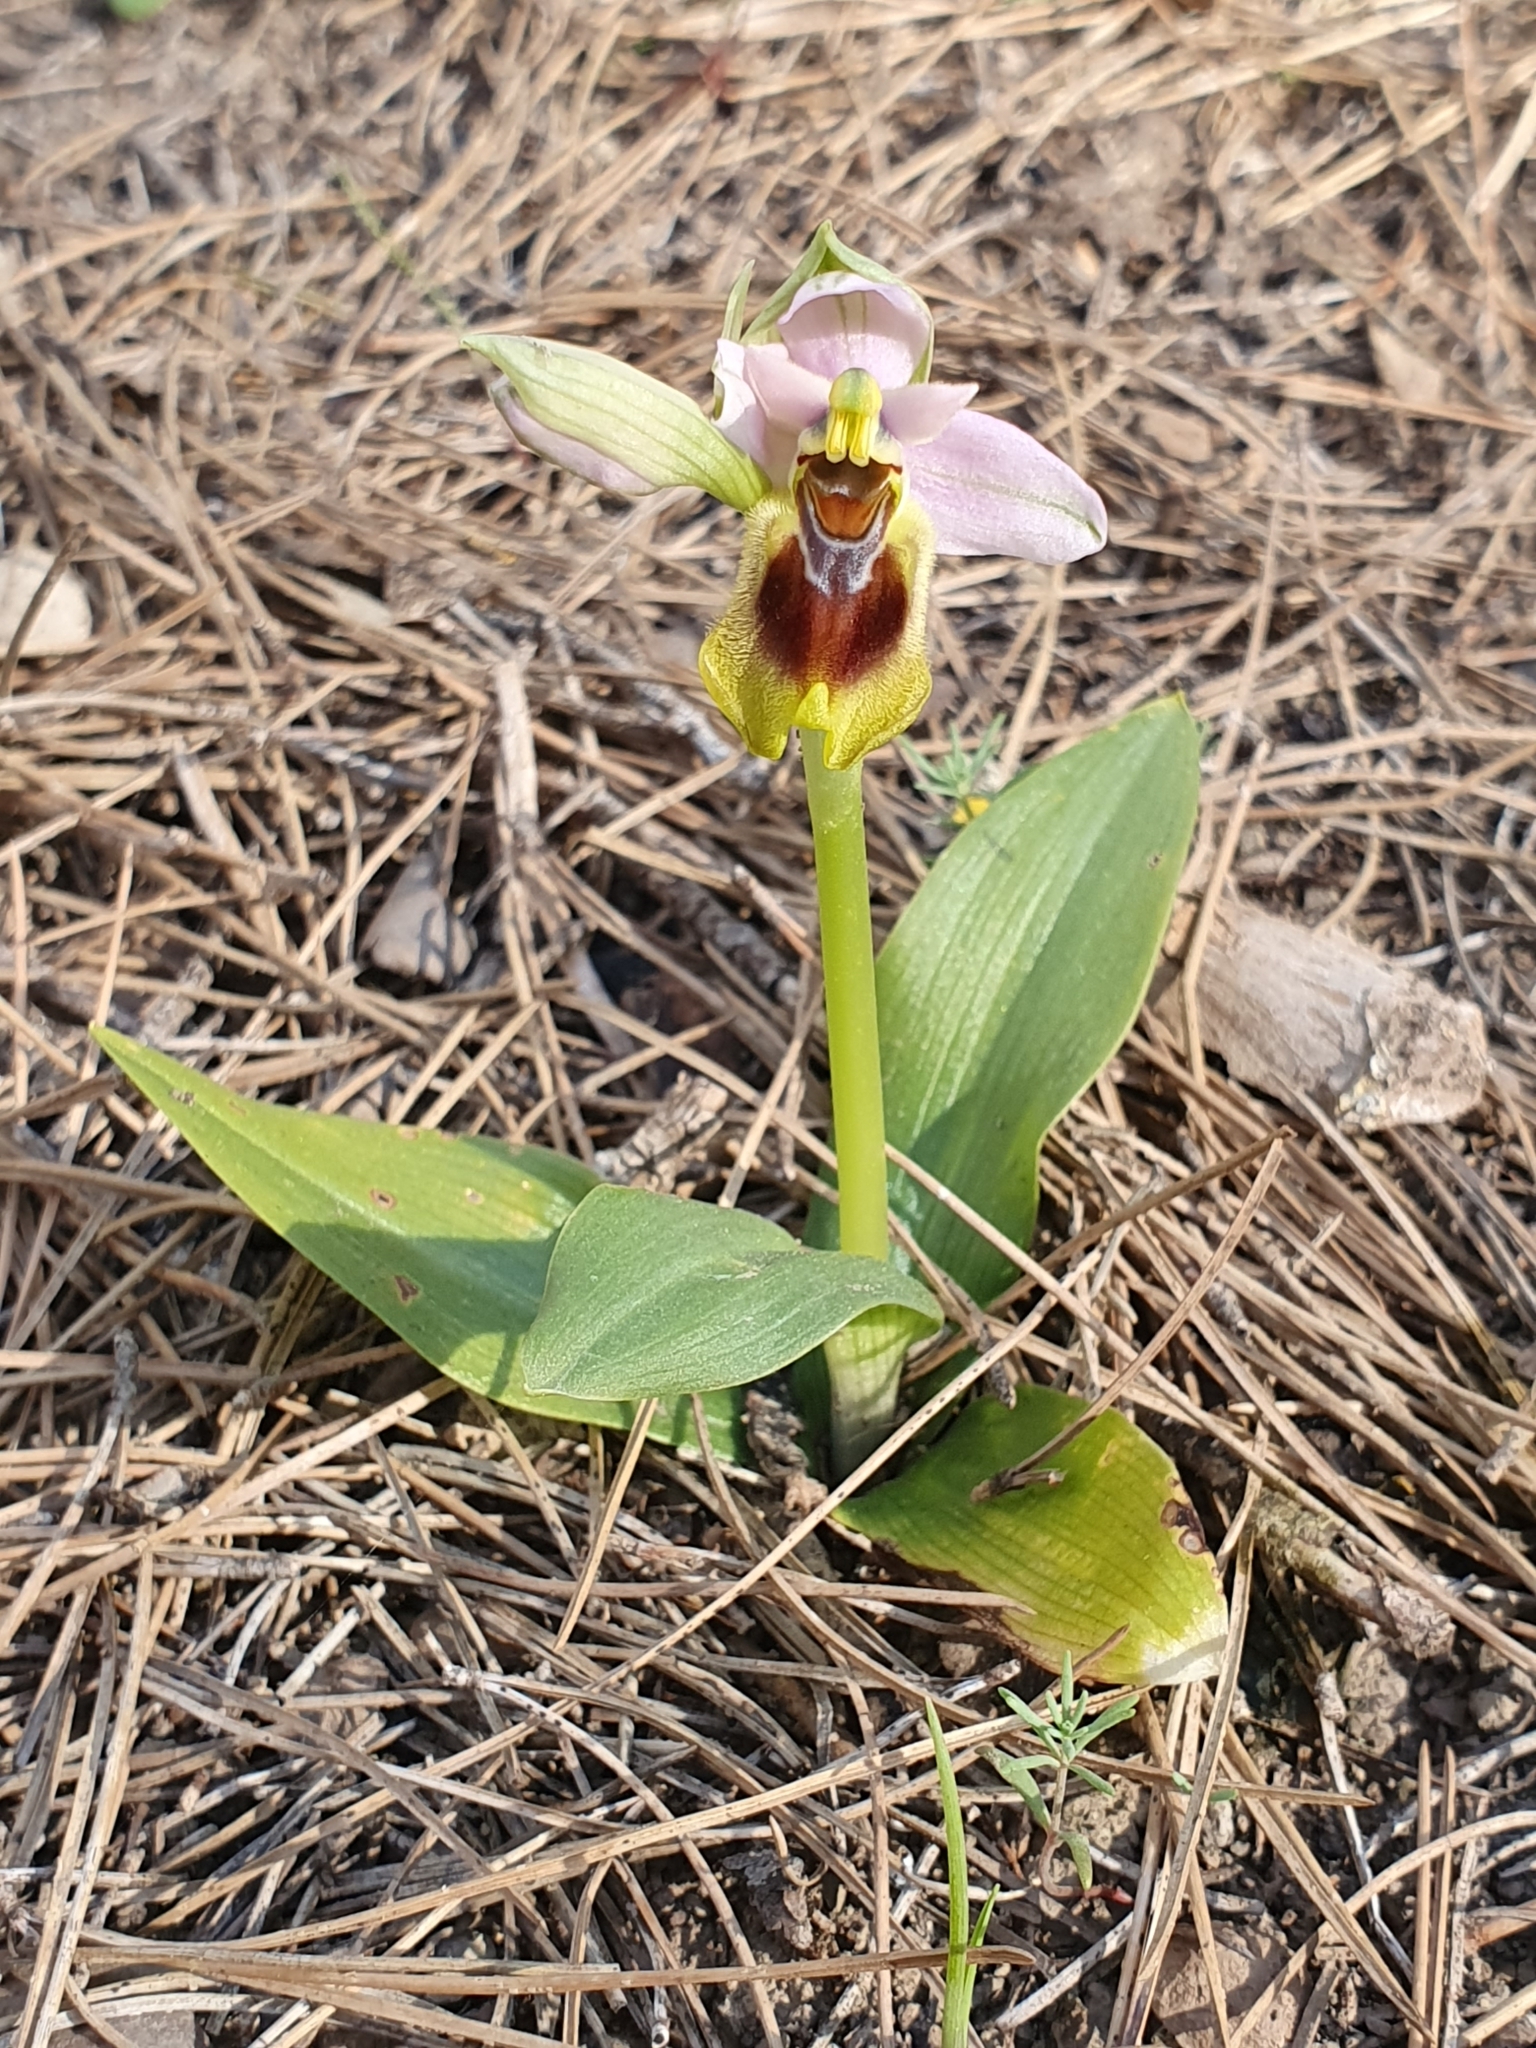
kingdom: Plantae
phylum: Tracheophyta
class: Liliopsida
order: Asparagales
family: Orchidaceae
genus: Ophrys
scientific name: Ophrys tenthredinifera
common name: Sawfly orchid
